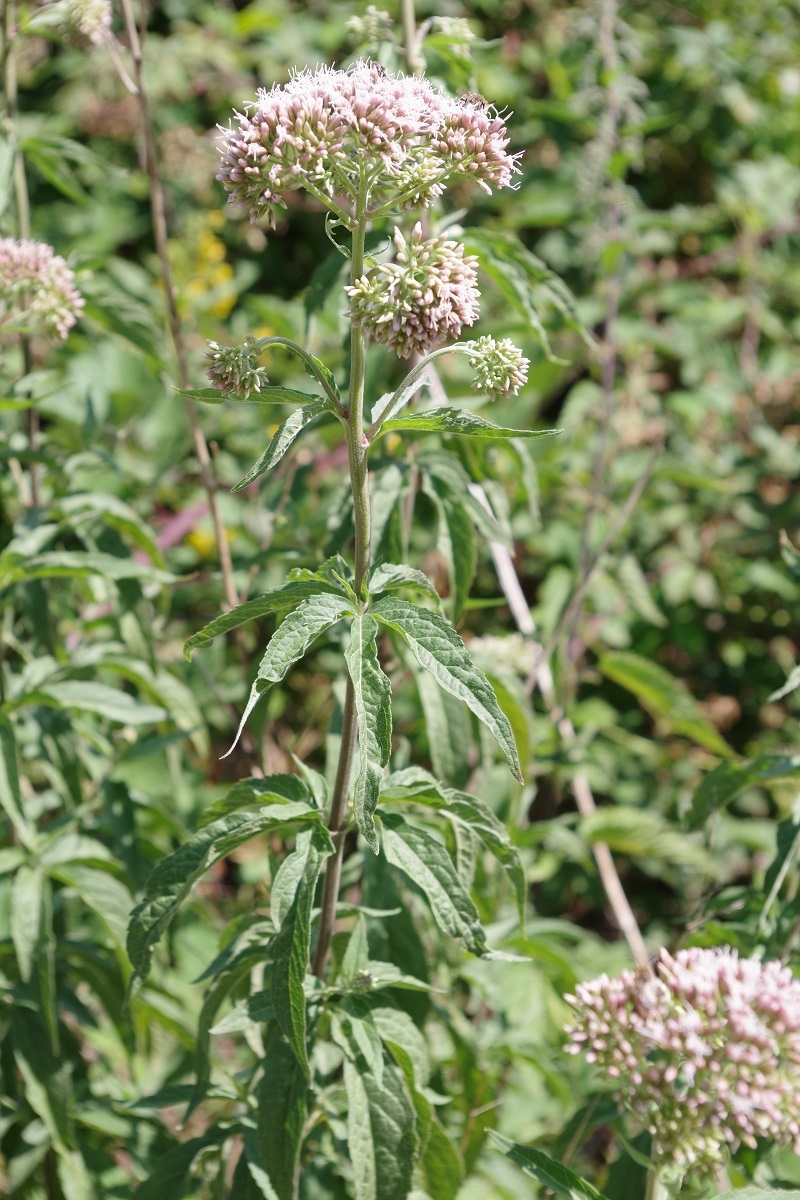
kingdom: Plantae
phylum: Tracheophyta
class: Magnoliopsida
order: Asterales
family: Asteraceae
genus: Eupatorium
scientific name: Eupatorium cannabinum
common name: Hemp-agrimony
